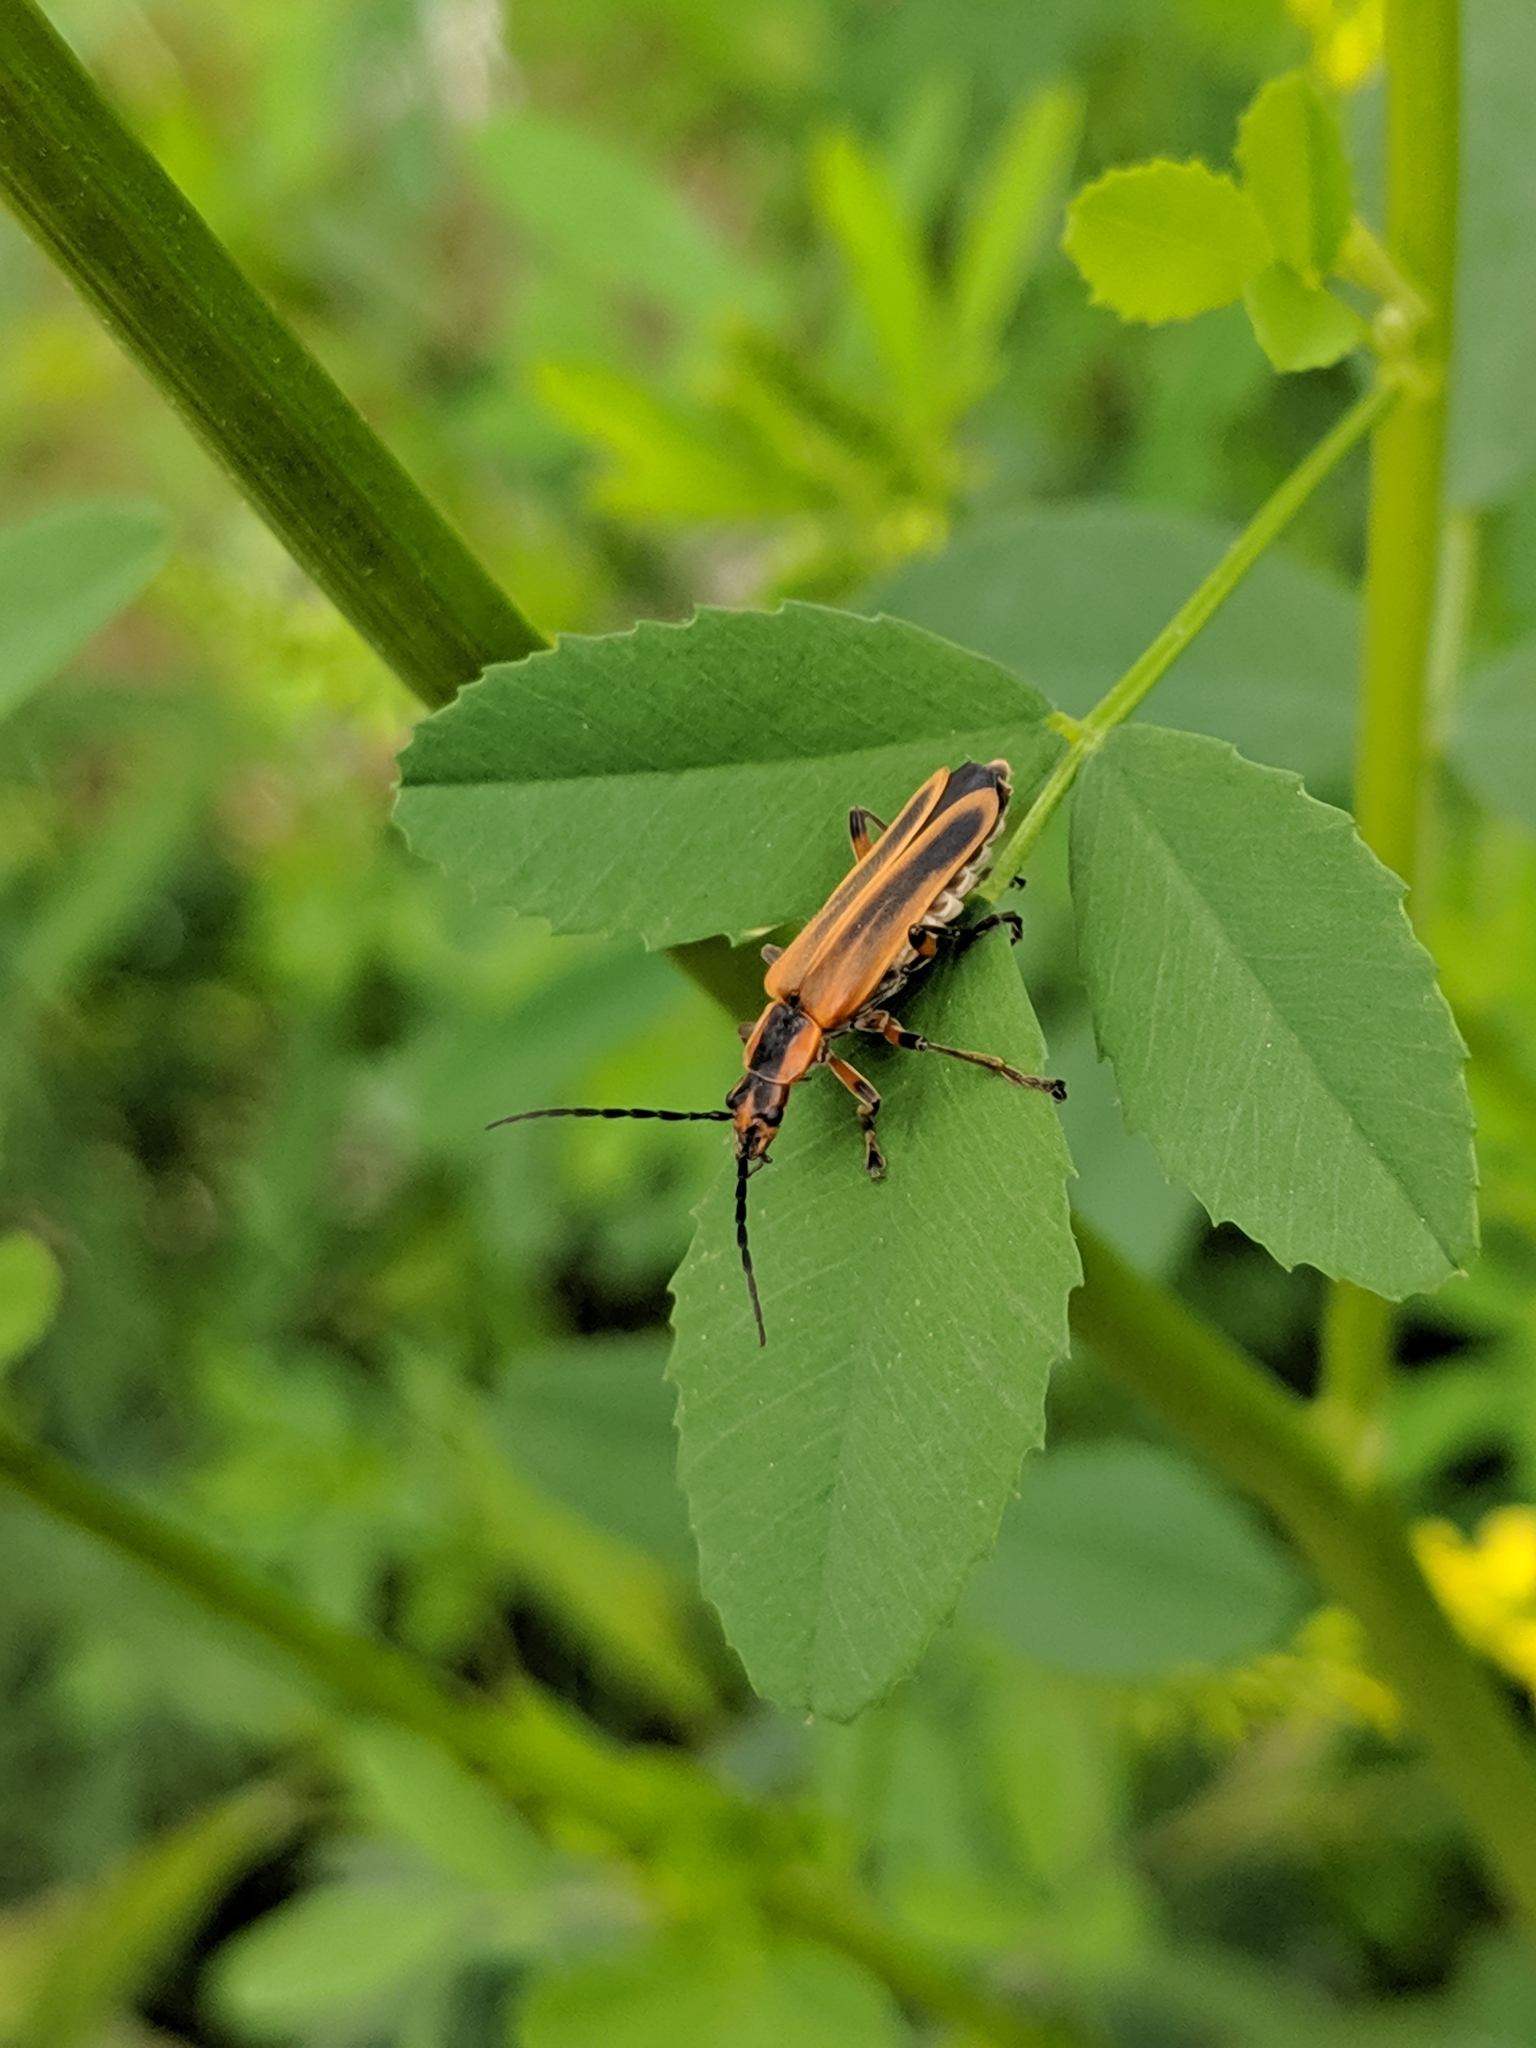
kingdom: Animalia
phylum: Arthropoda
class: Insecta
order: Coleoptera
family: Cantharidae
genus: Chauliognathus
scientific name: Chauliognathus marginatus
